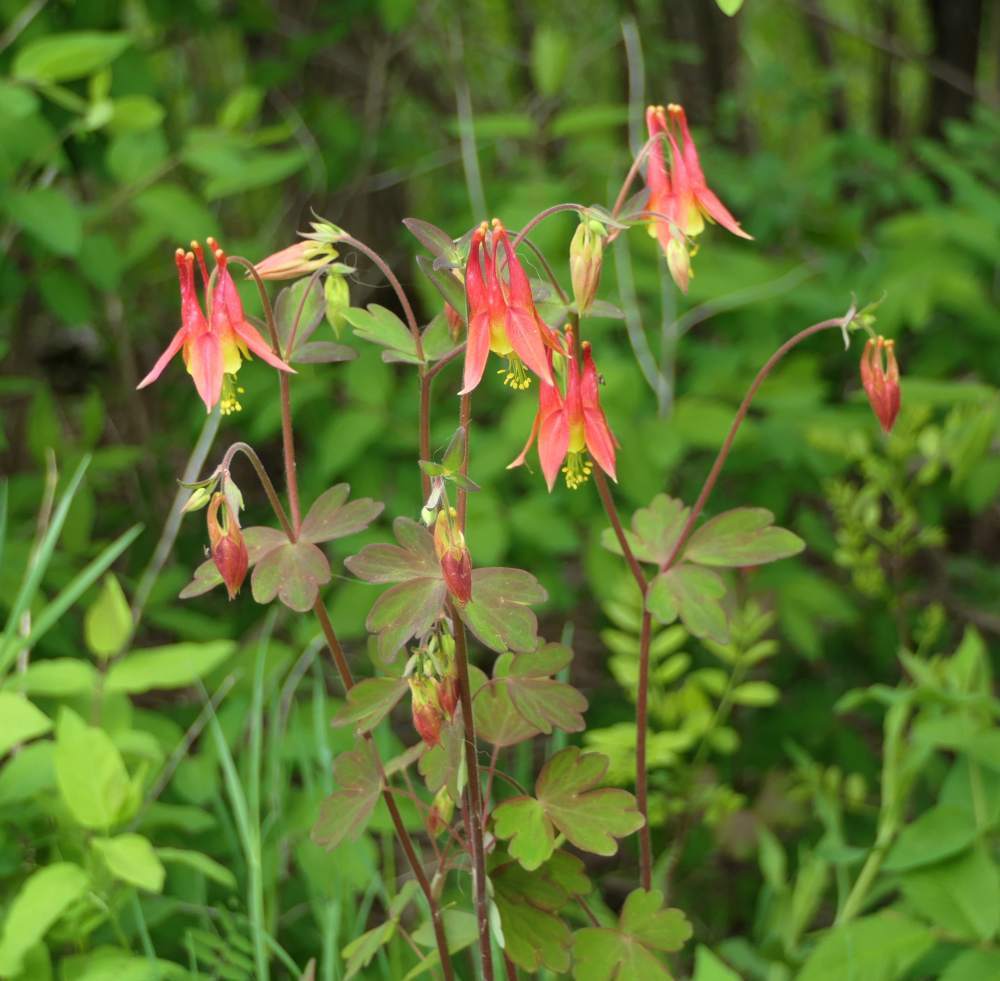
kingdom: Plantae
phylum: Tracheophyta
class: Magnoliopsida
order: Ranunculales
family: Ranunculaceae
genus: Aquilegia
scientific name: Aquilegia canadensis
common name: American columbine
